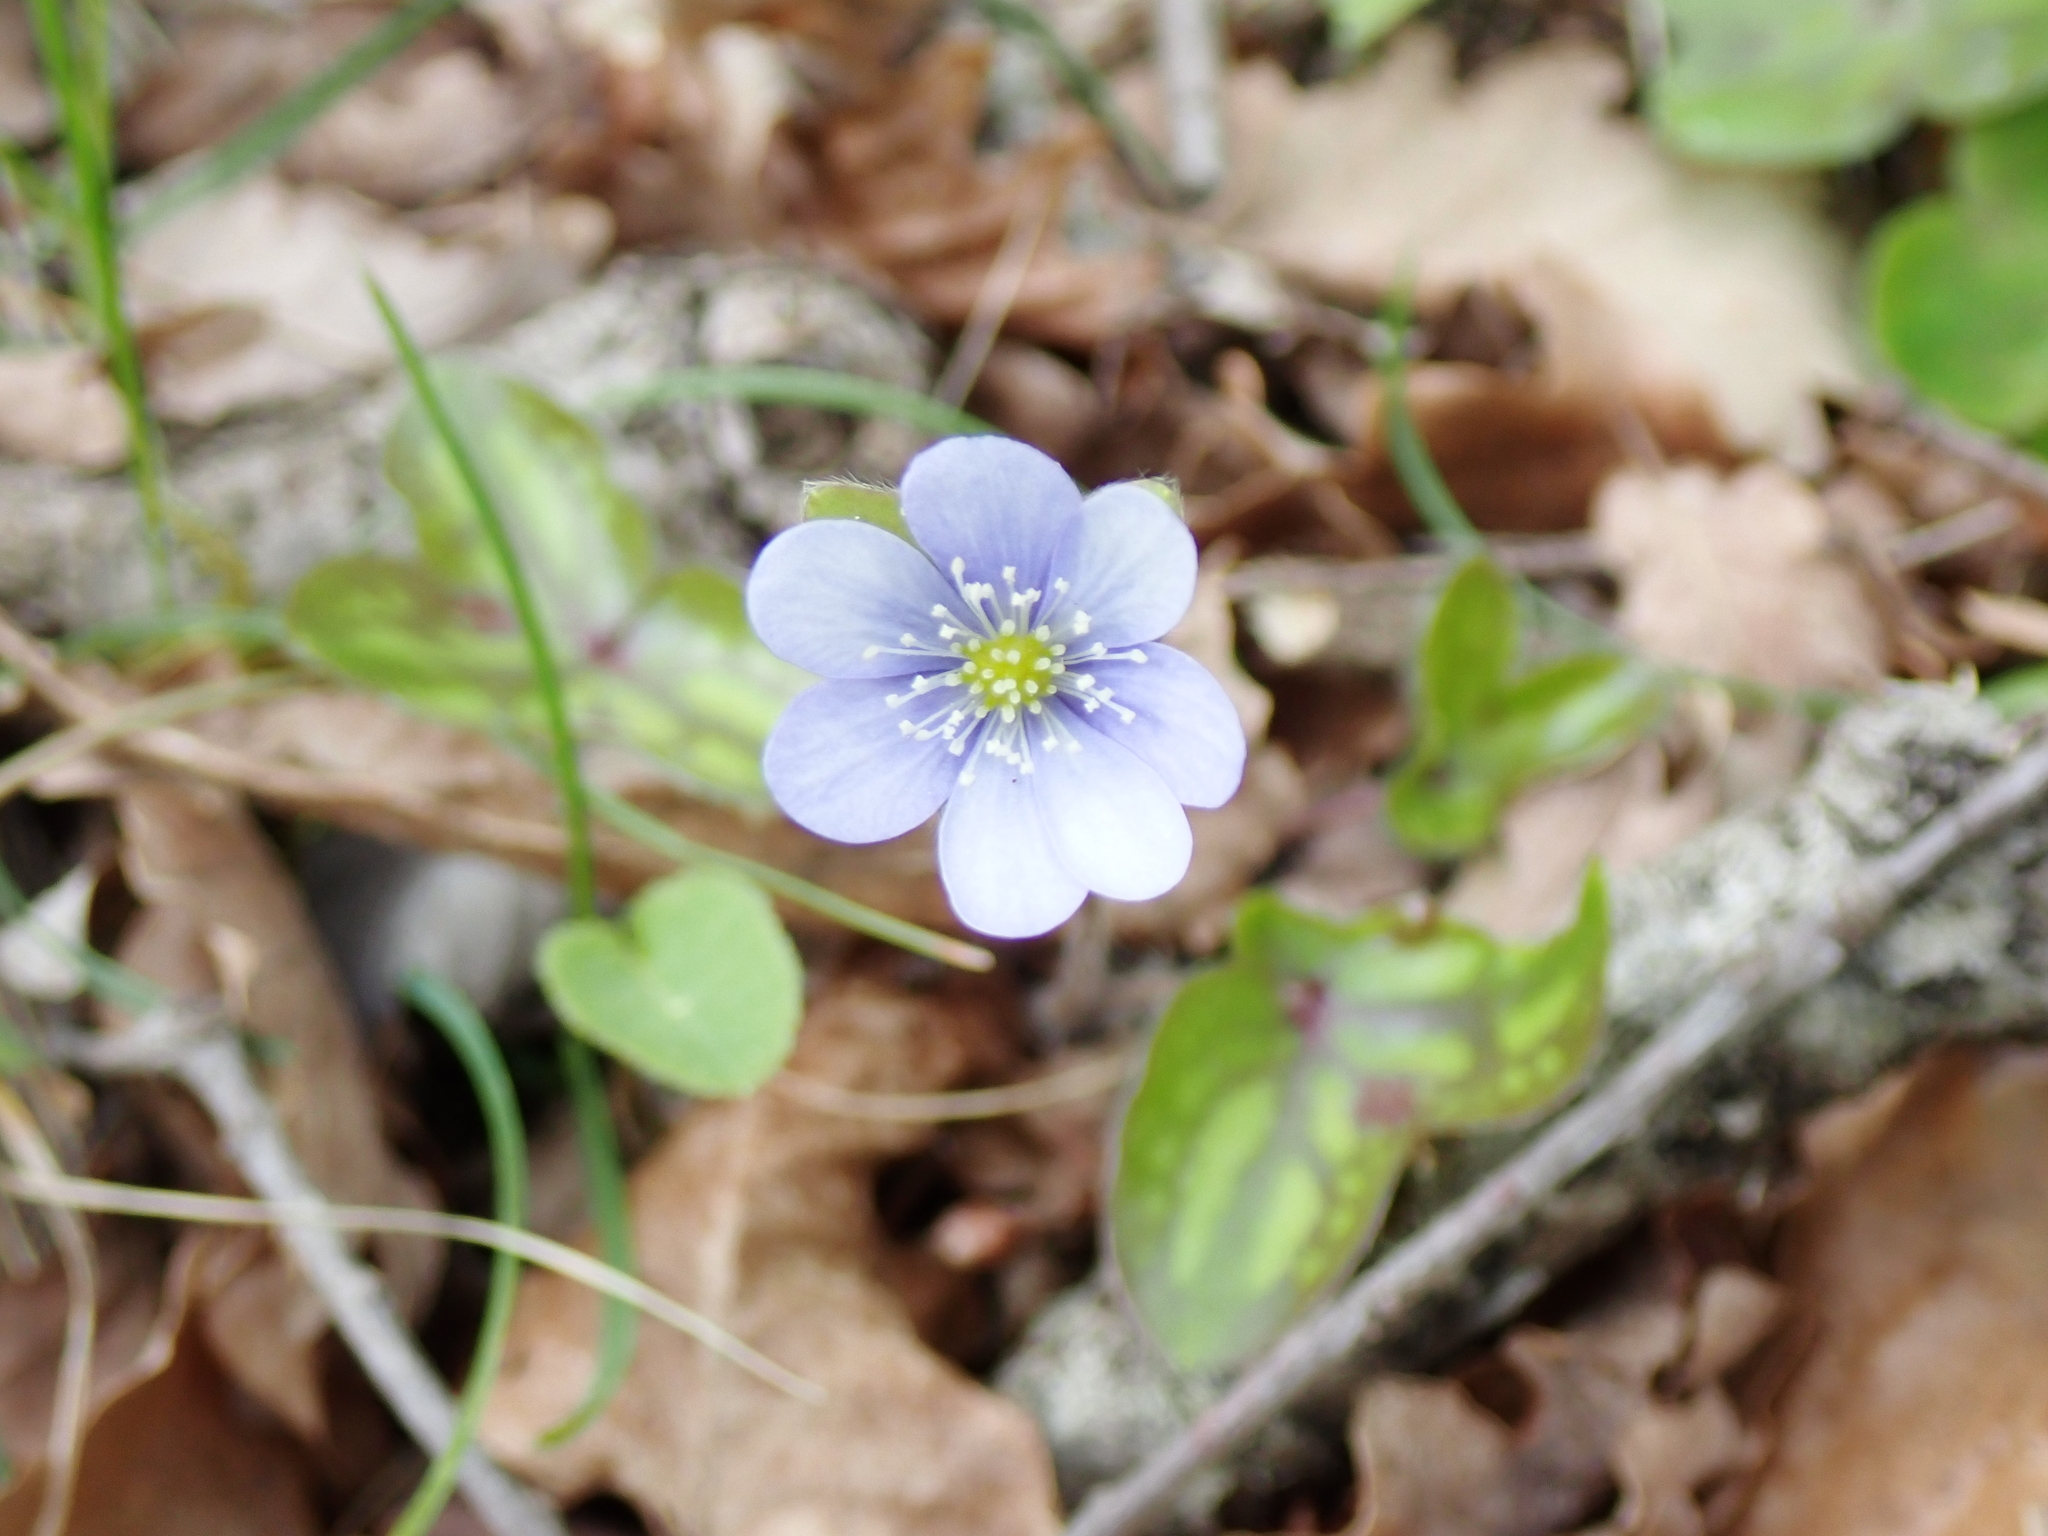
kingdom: Plantae
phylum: Tracheophyta
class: Magnoliopsida
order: Ranunculales
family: Ranunculaceae
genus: Hepatica
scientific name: Hepatica nobilis
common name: Liverleaf
